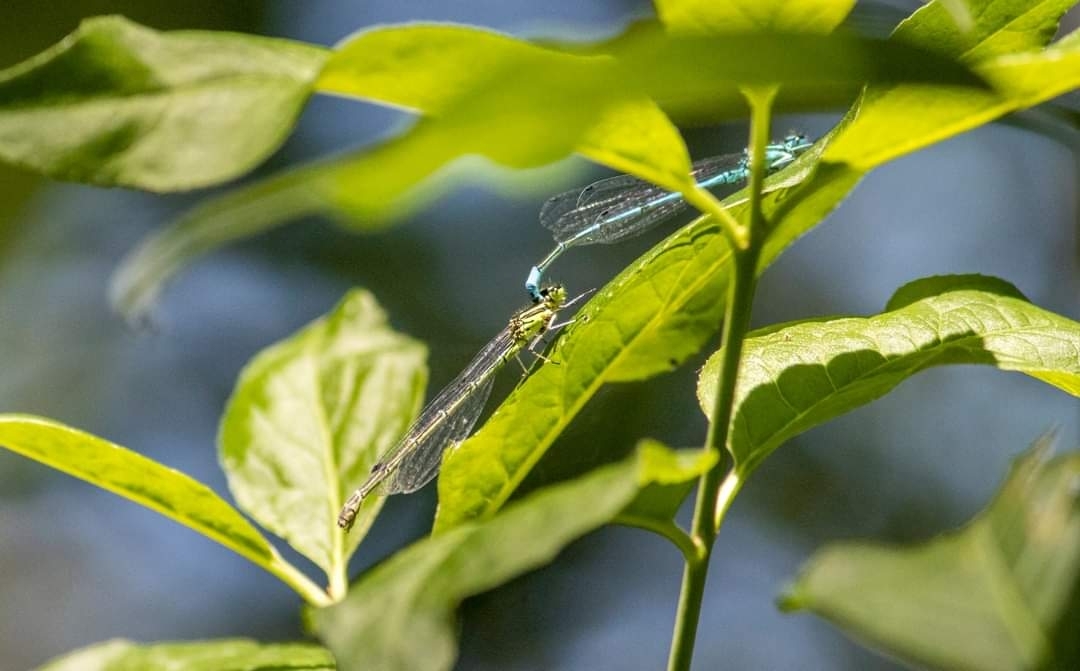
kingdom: Animalia
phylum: Arthropoda
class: Insecta
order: Odonata
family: Coenagrionidae
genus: Coenagrion
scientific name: Coenagrion puella
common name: Azure damselfly
